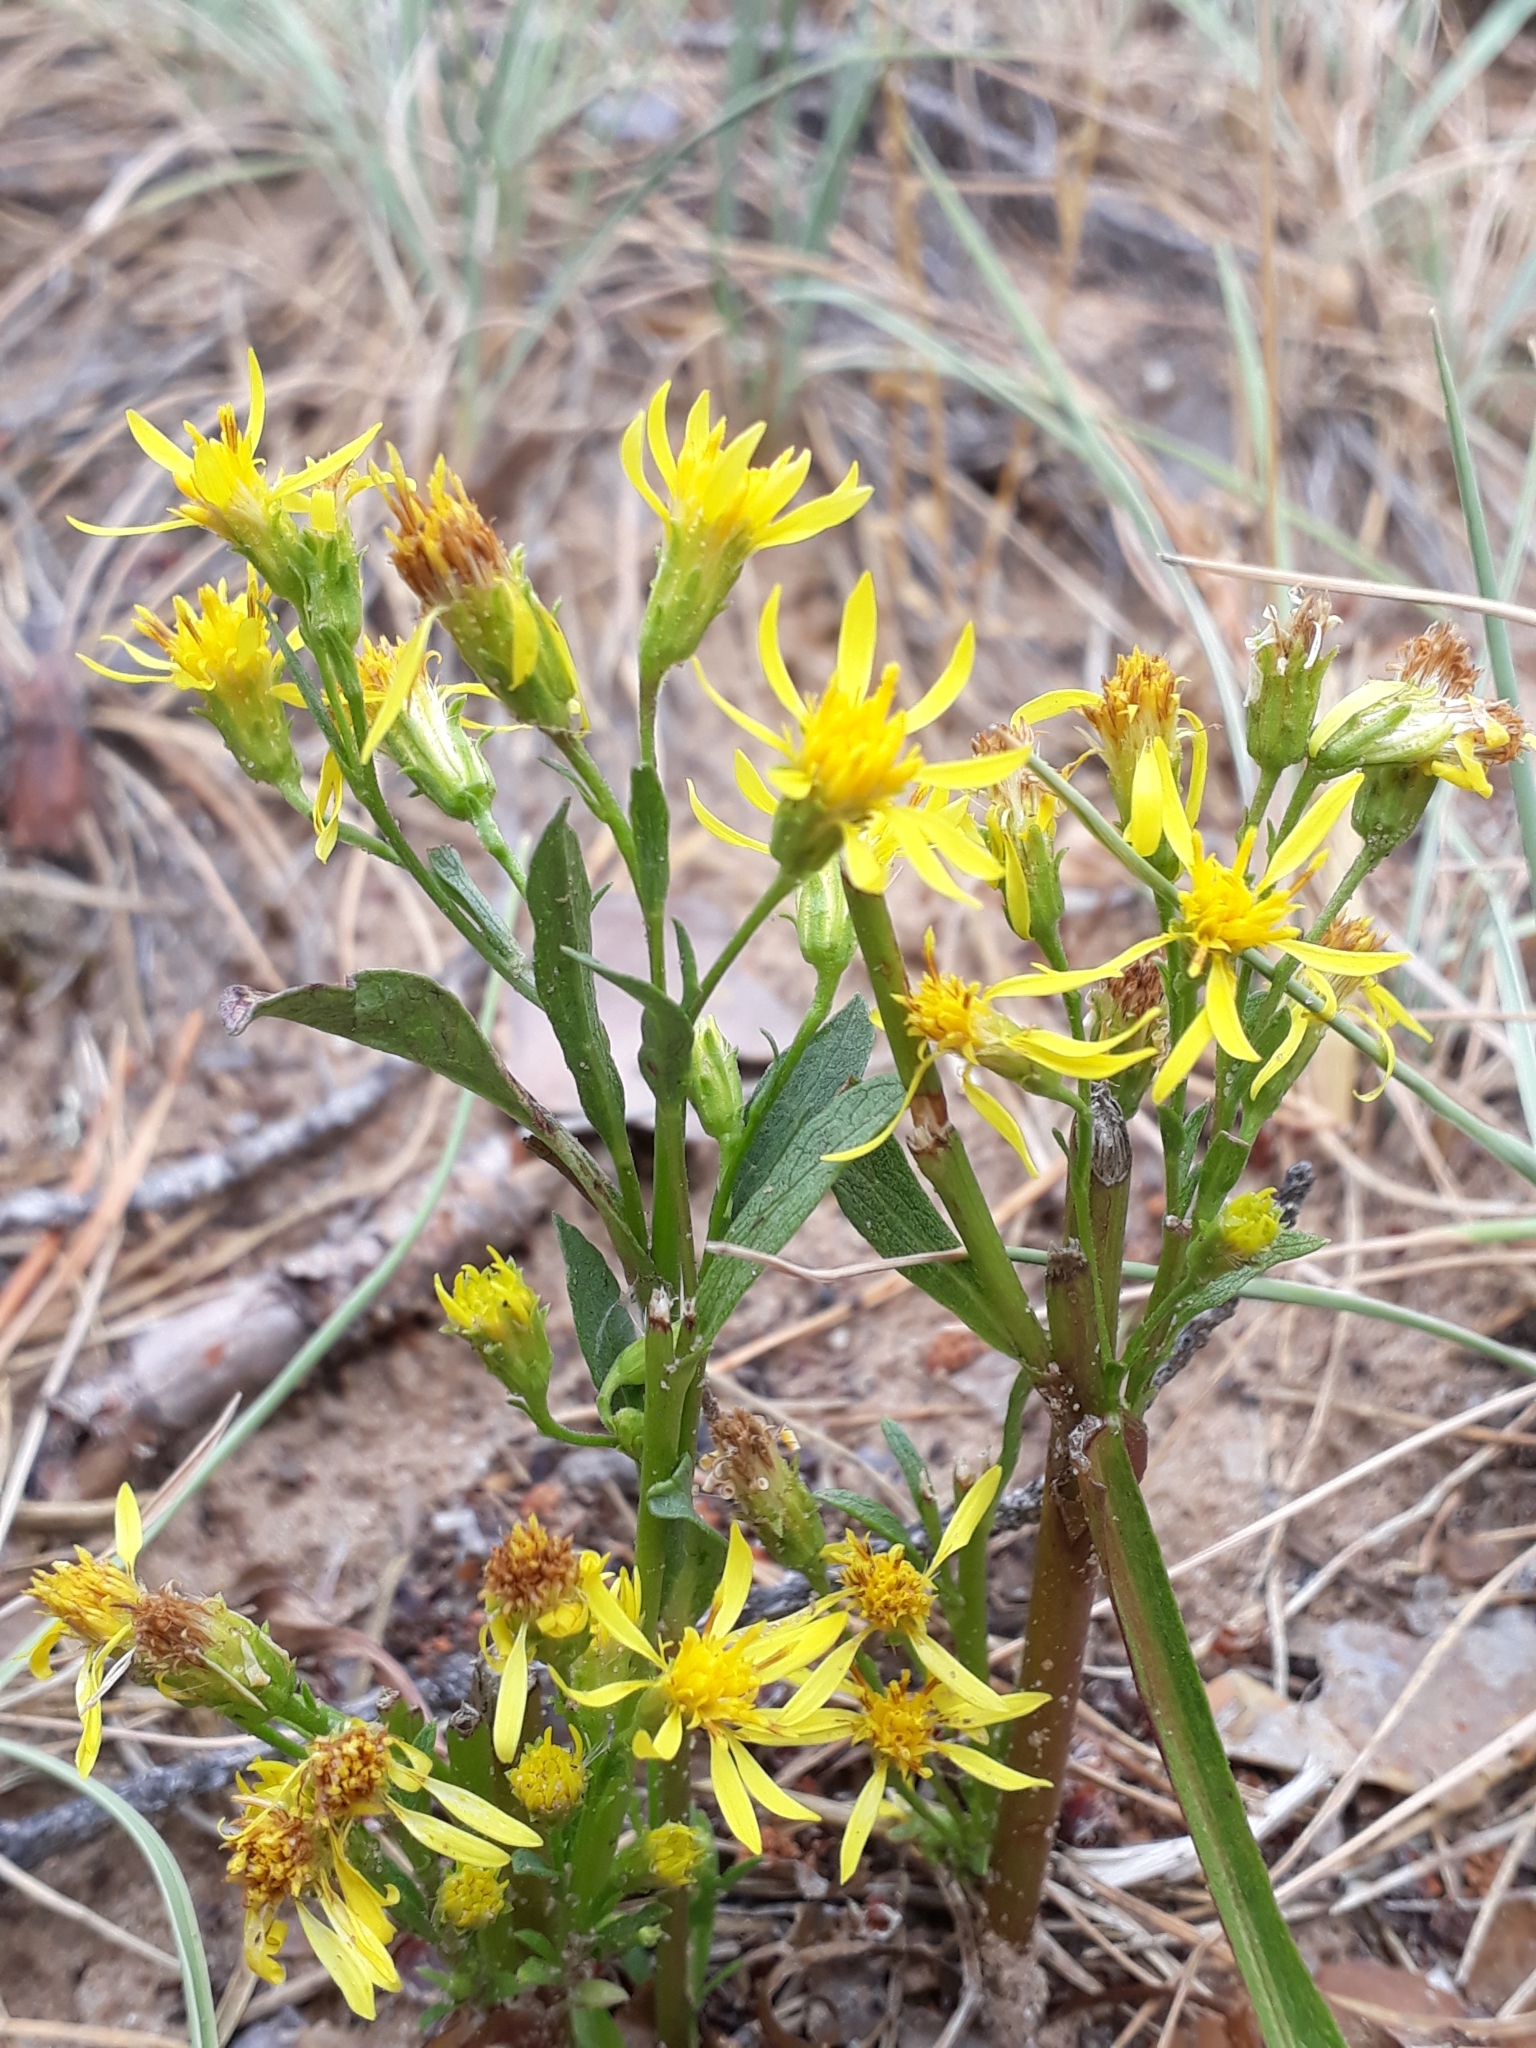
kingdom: Plantae
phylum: Tracheophyta
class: Magnoliopsida
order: Asterales
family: Asteraceae
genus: Solidago
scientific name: Solidago virgaurea
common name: Goldenrod
